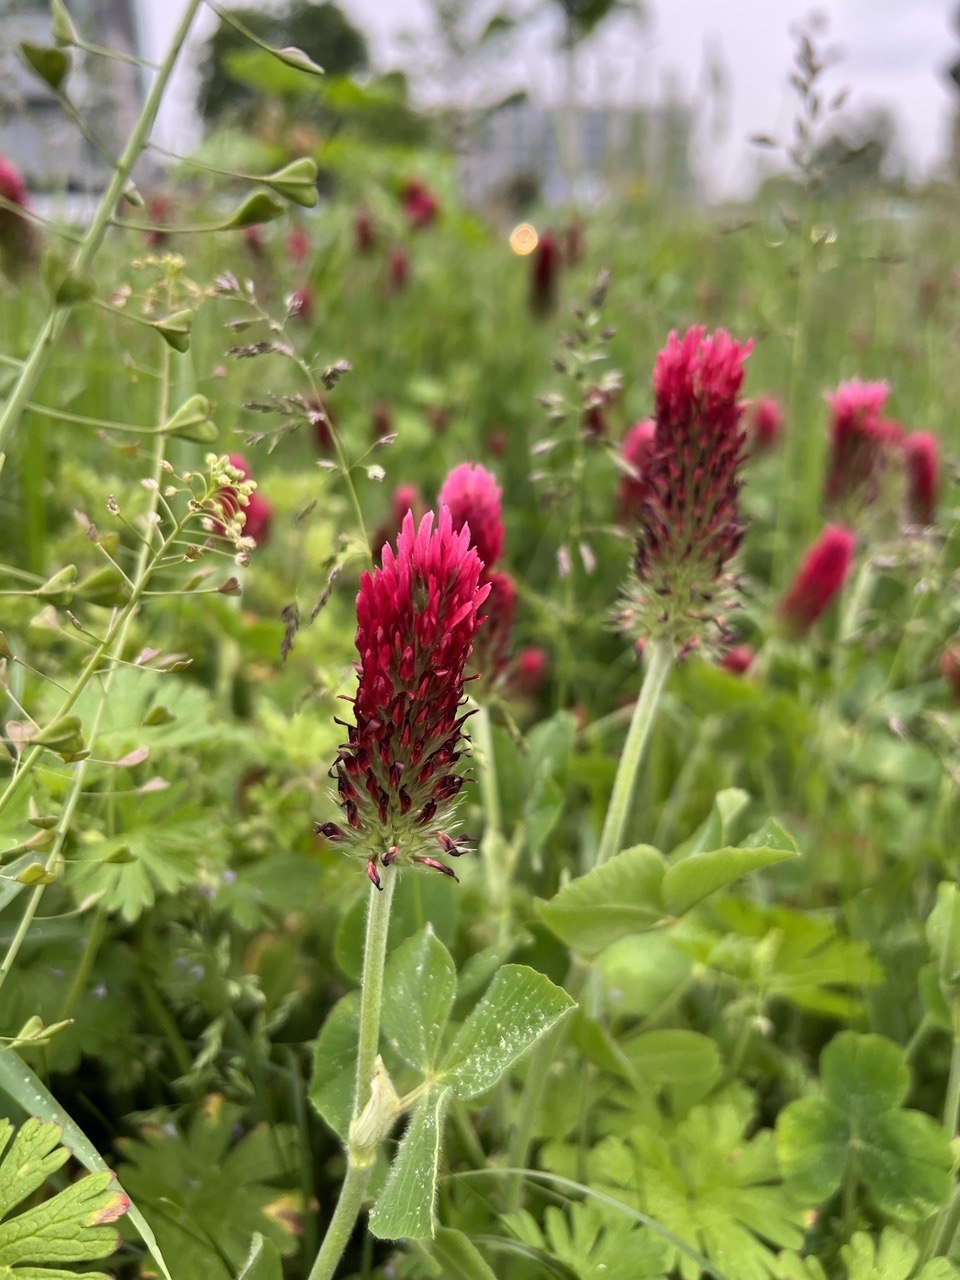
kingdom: Plantae
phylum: Tracheophyta
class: Magnoliopsida
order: Fabales
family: Fabaceae
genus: Trifolium
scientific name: Trifolium incarnatum
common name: Crimson clover
